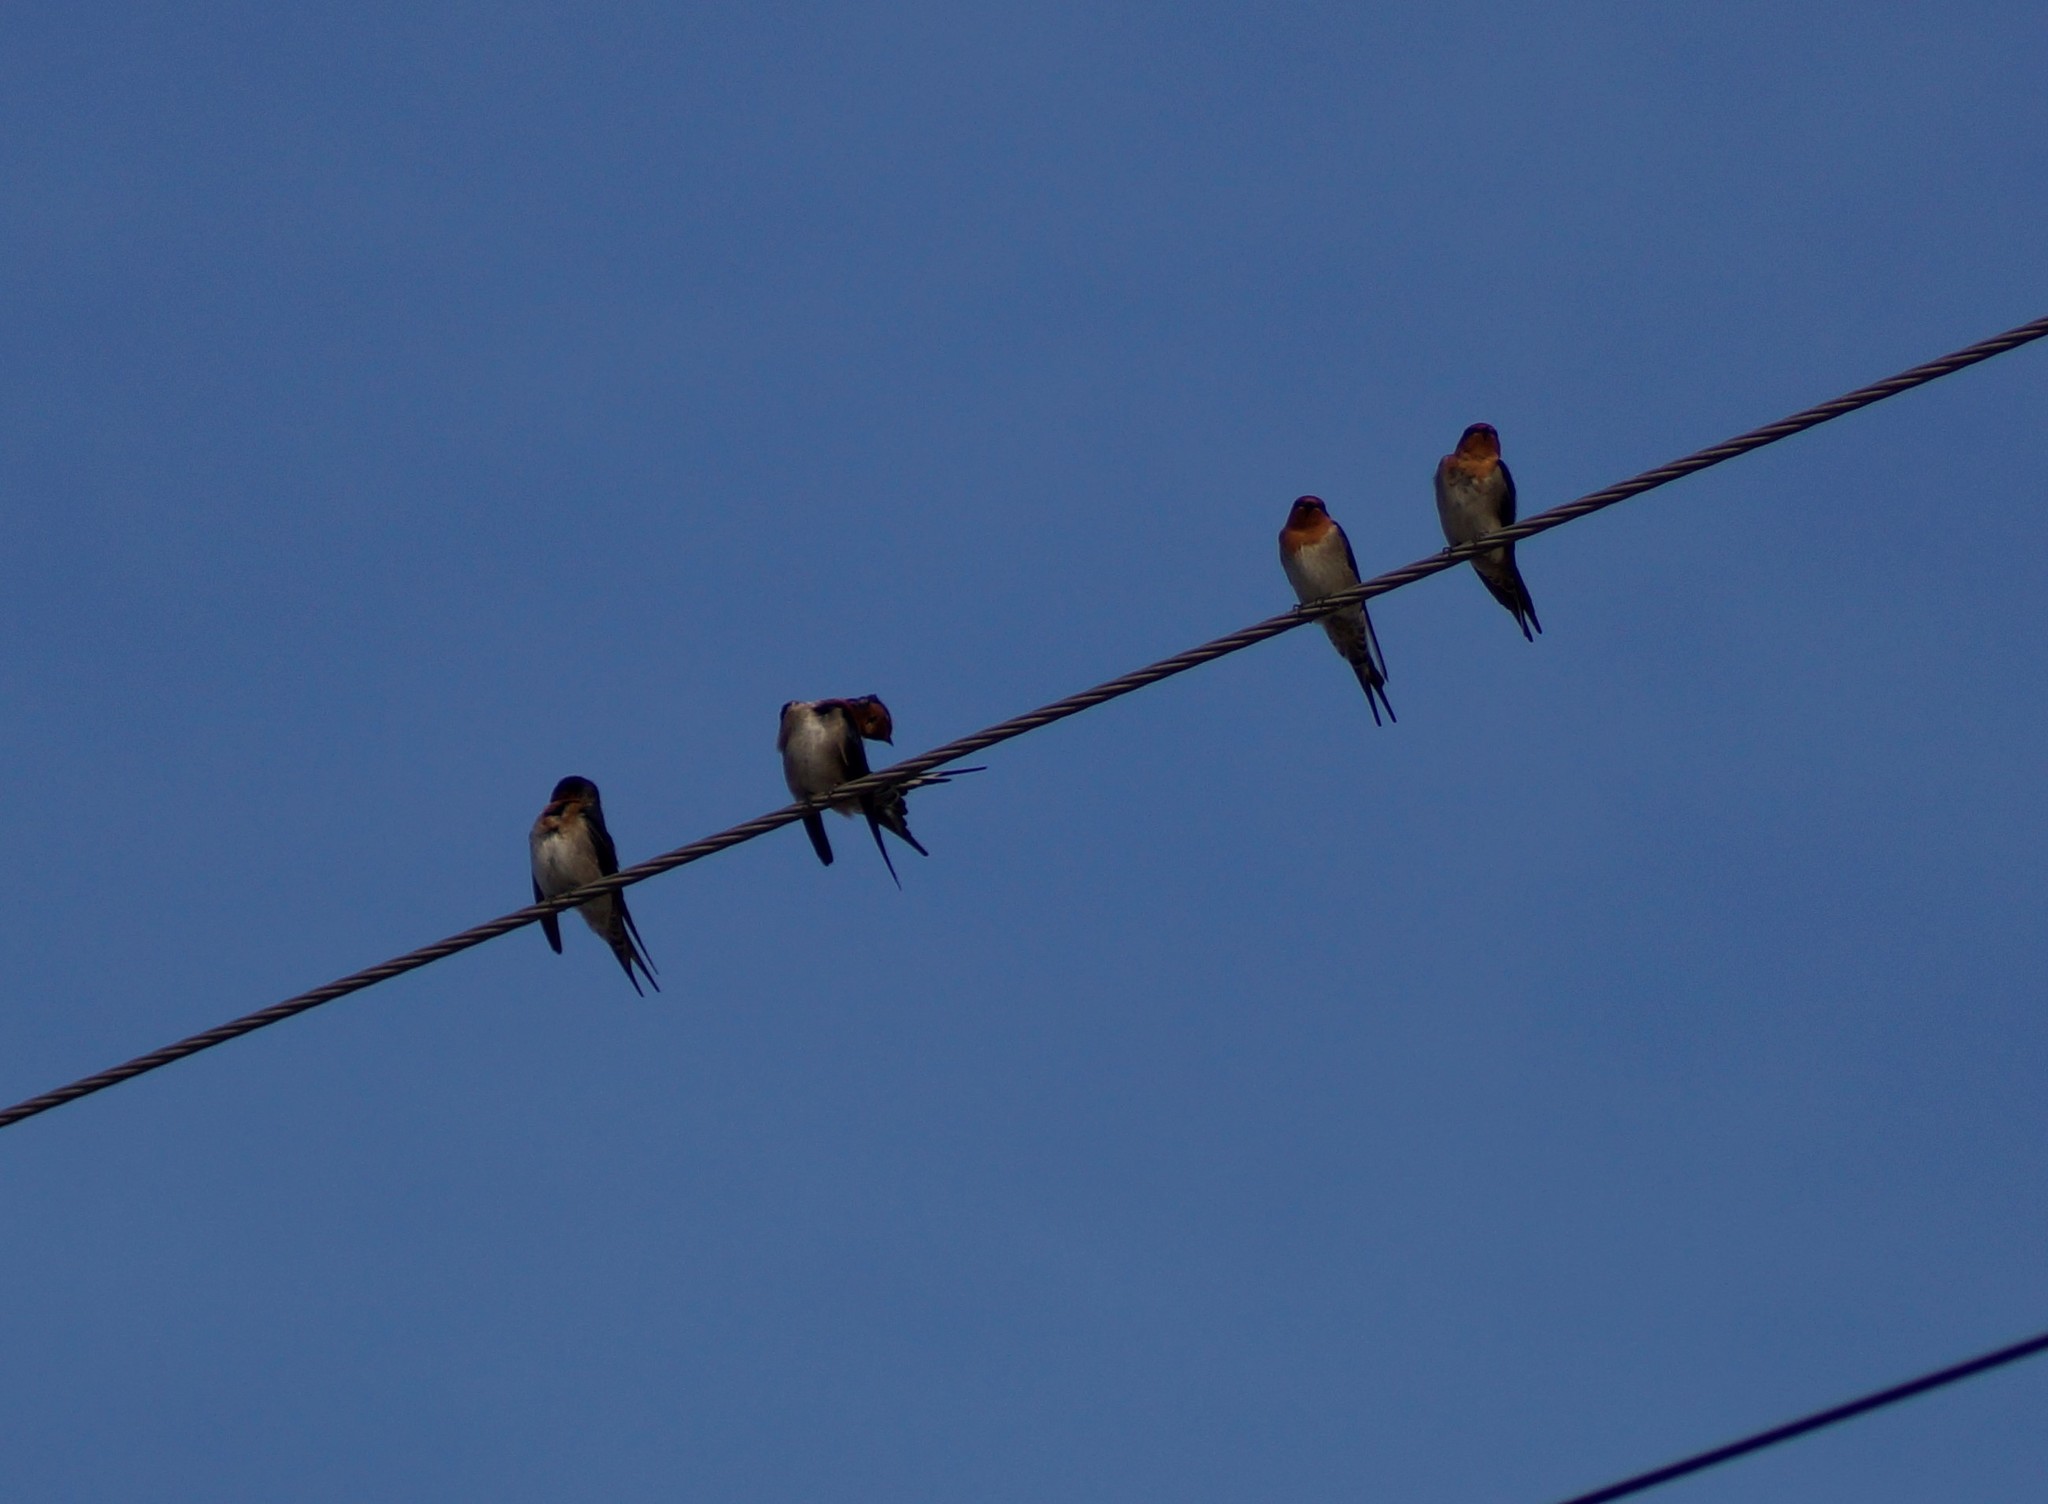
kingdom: Animalia
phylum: Chordata
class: Aves
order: Passeriformes
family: Hirundinidae
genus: Hirundo
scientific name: Hirundo neoxena
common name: Welcome swallow
